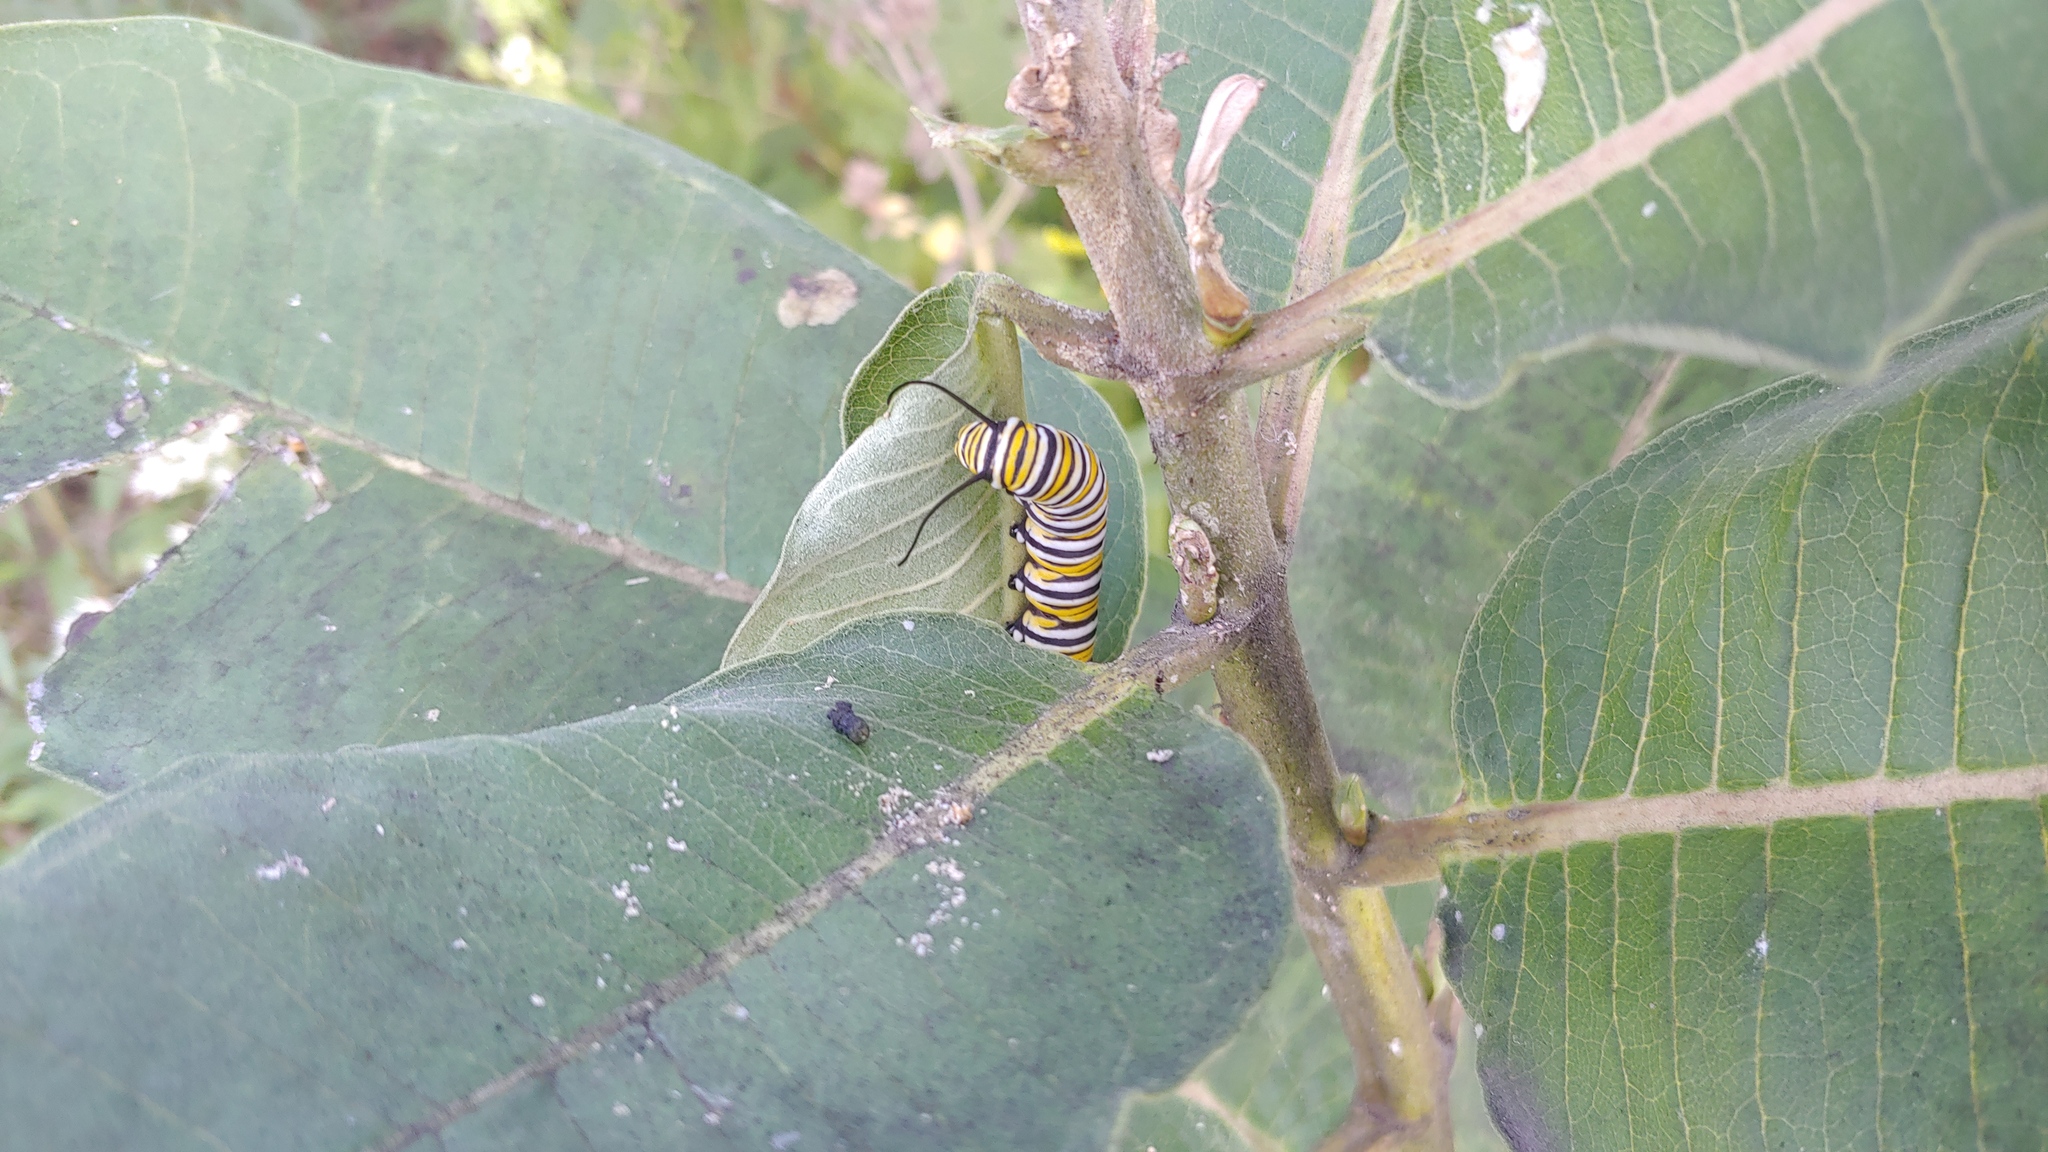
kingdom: Animalia
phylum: Arthropoda
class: Insecta
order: Lepidoptera
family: Nymphalidae
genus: Danaus
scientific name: Danaus plexippus
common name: Monarch
